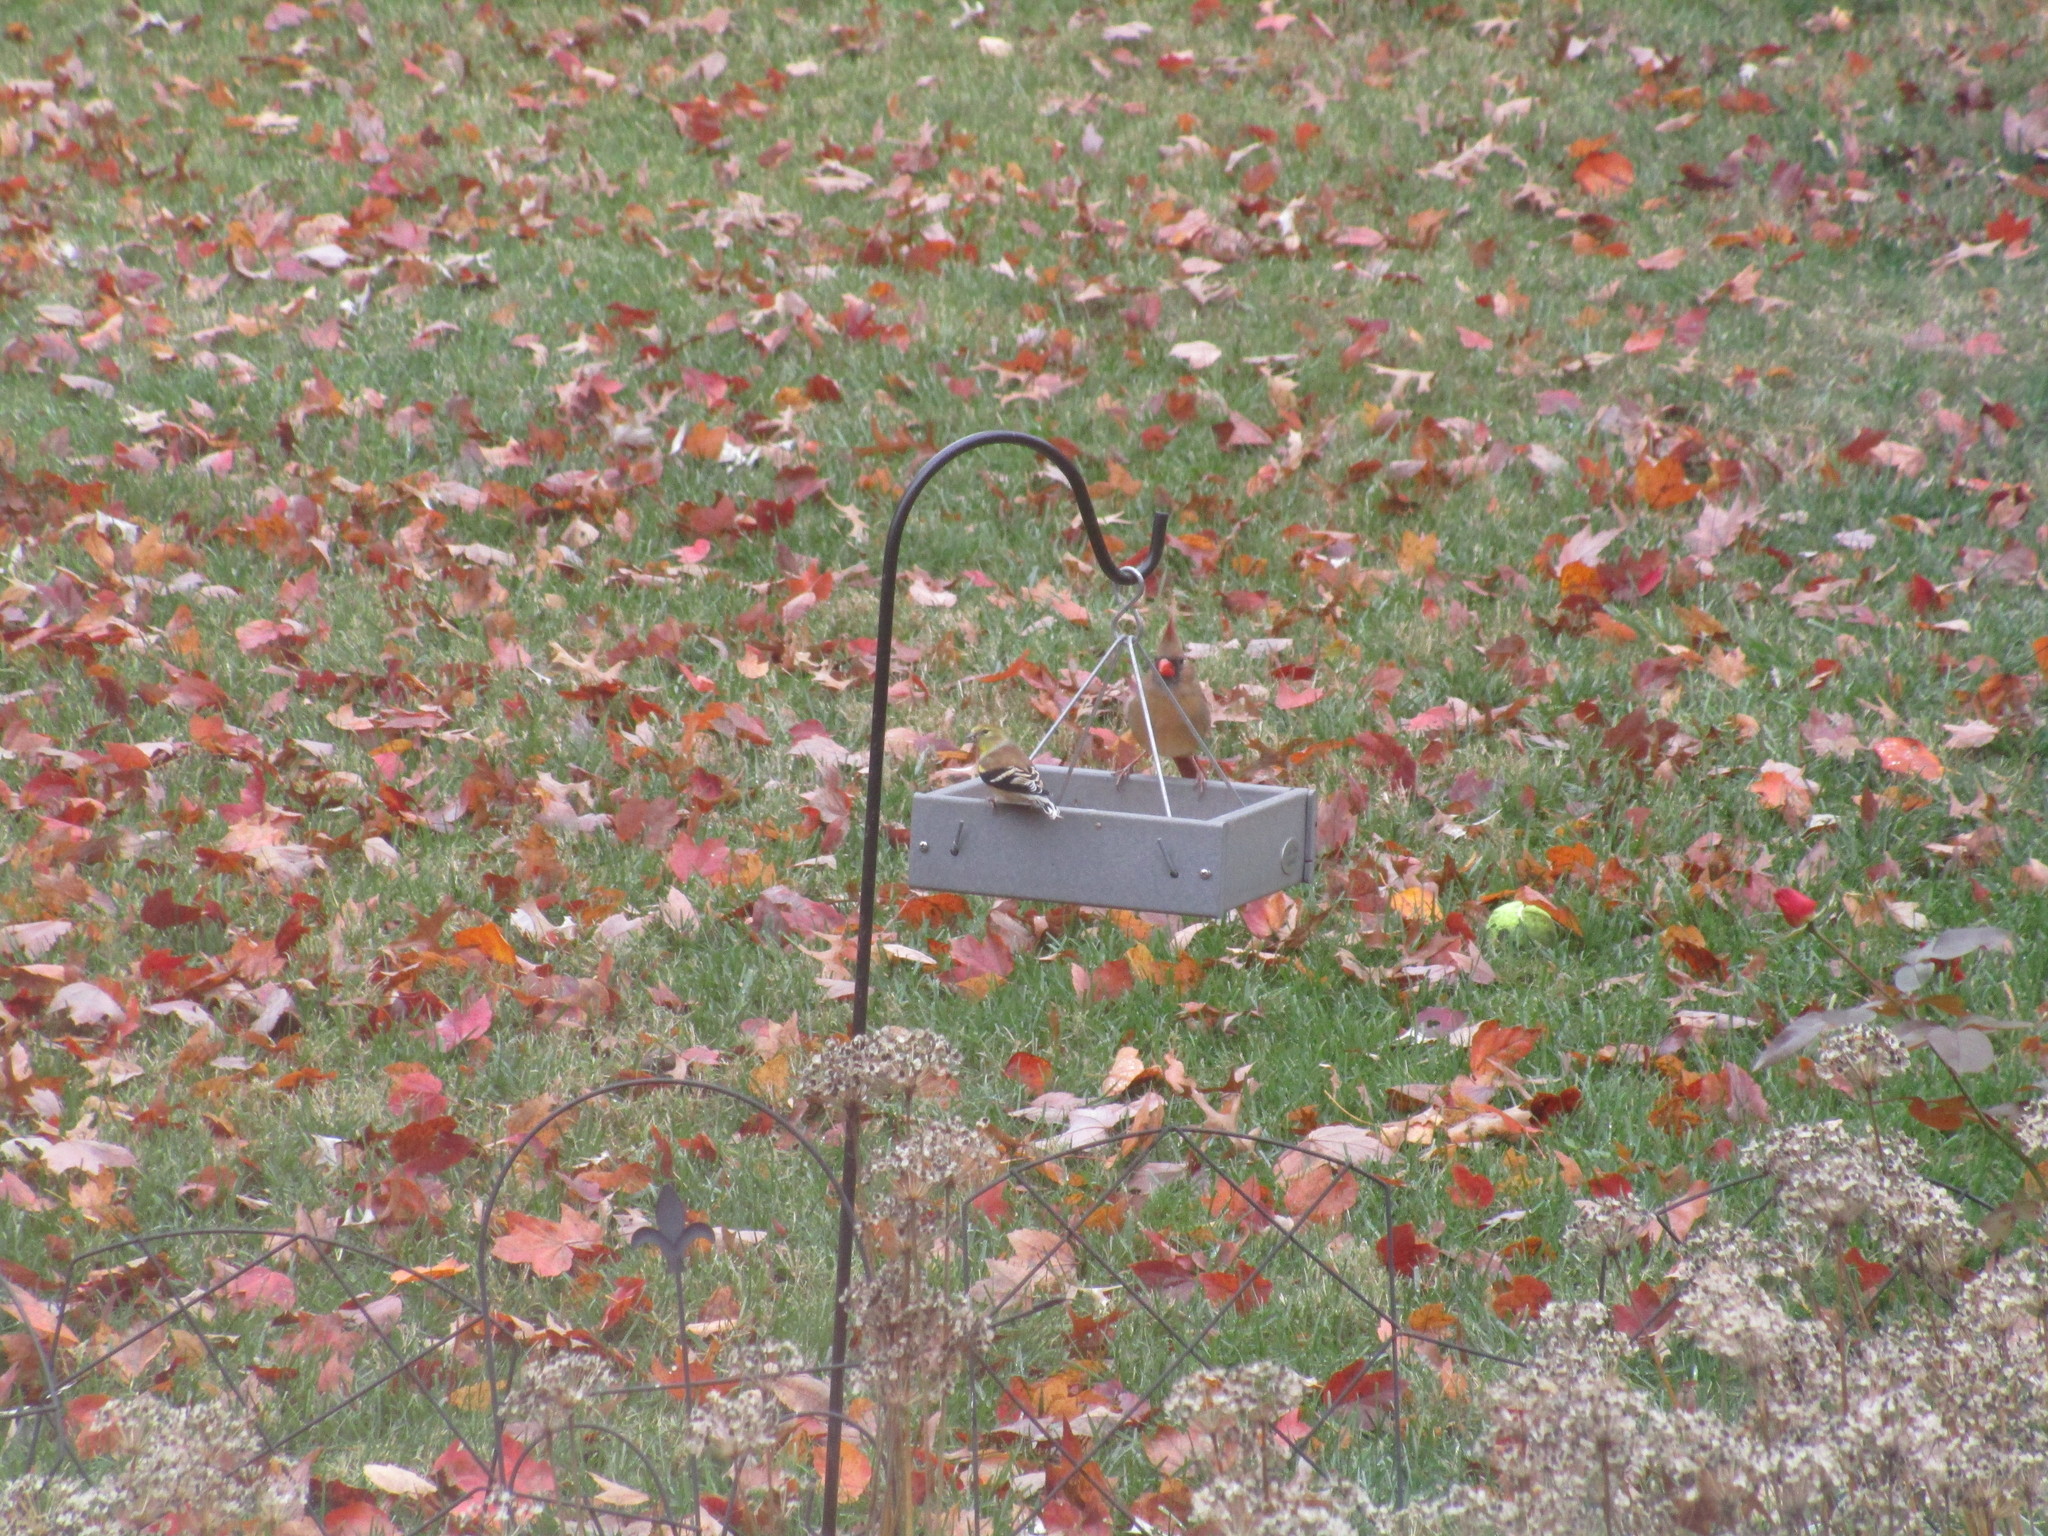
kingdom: Animalia
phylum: Chordata
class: Aves
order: Passeriformes
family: Cardinalidae
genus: Cardinalis
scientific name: Cardinalis cardinalis
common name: Northern cardinal
